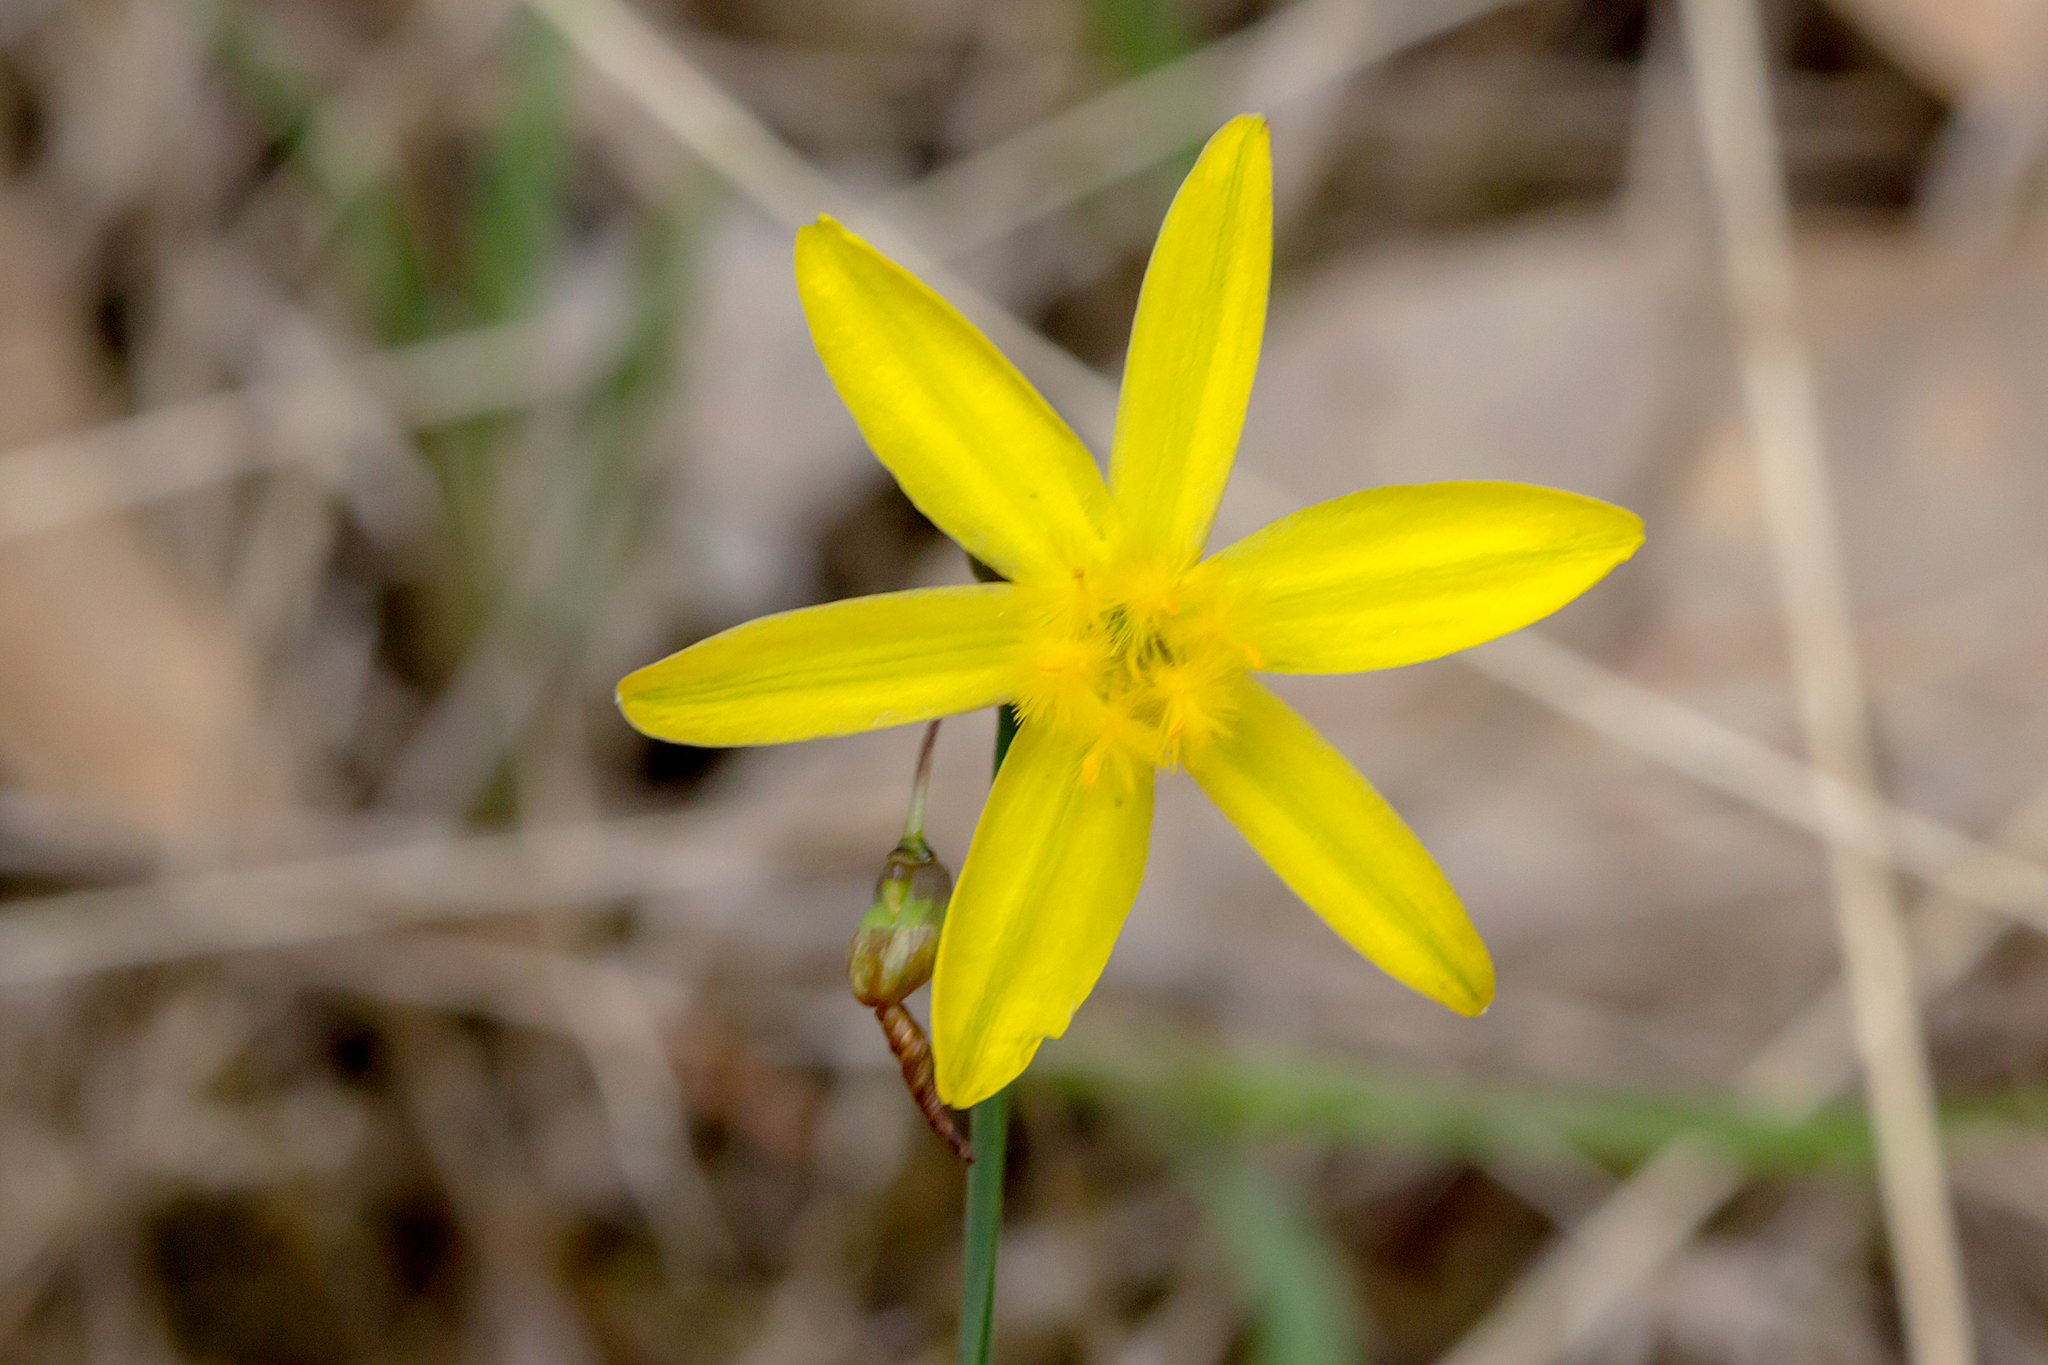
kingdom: Plantae
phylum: Tracheophyta
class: Liliopsida
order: Asparagales
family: Asphodelaceae
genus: Tricoryne
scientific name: Tricoryne elatior
